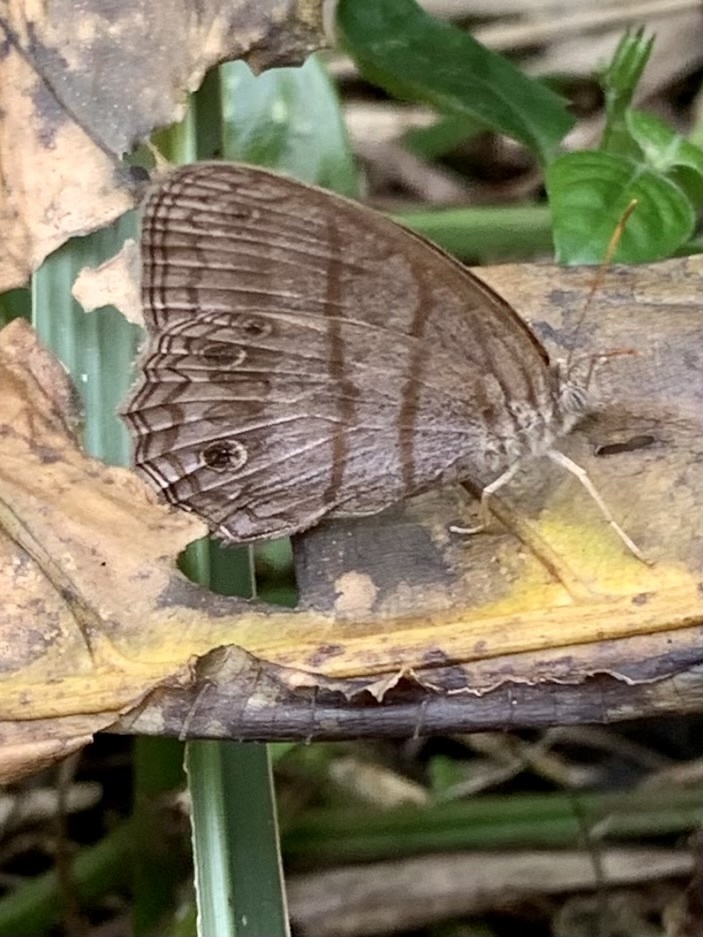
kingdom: Animalia
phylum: Arthropoda
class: Insecta
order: Lepidoptera
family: Nymphalidae
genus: Magneuptychia
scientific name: Magneuptychia libye
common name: Blue-gray satyr
